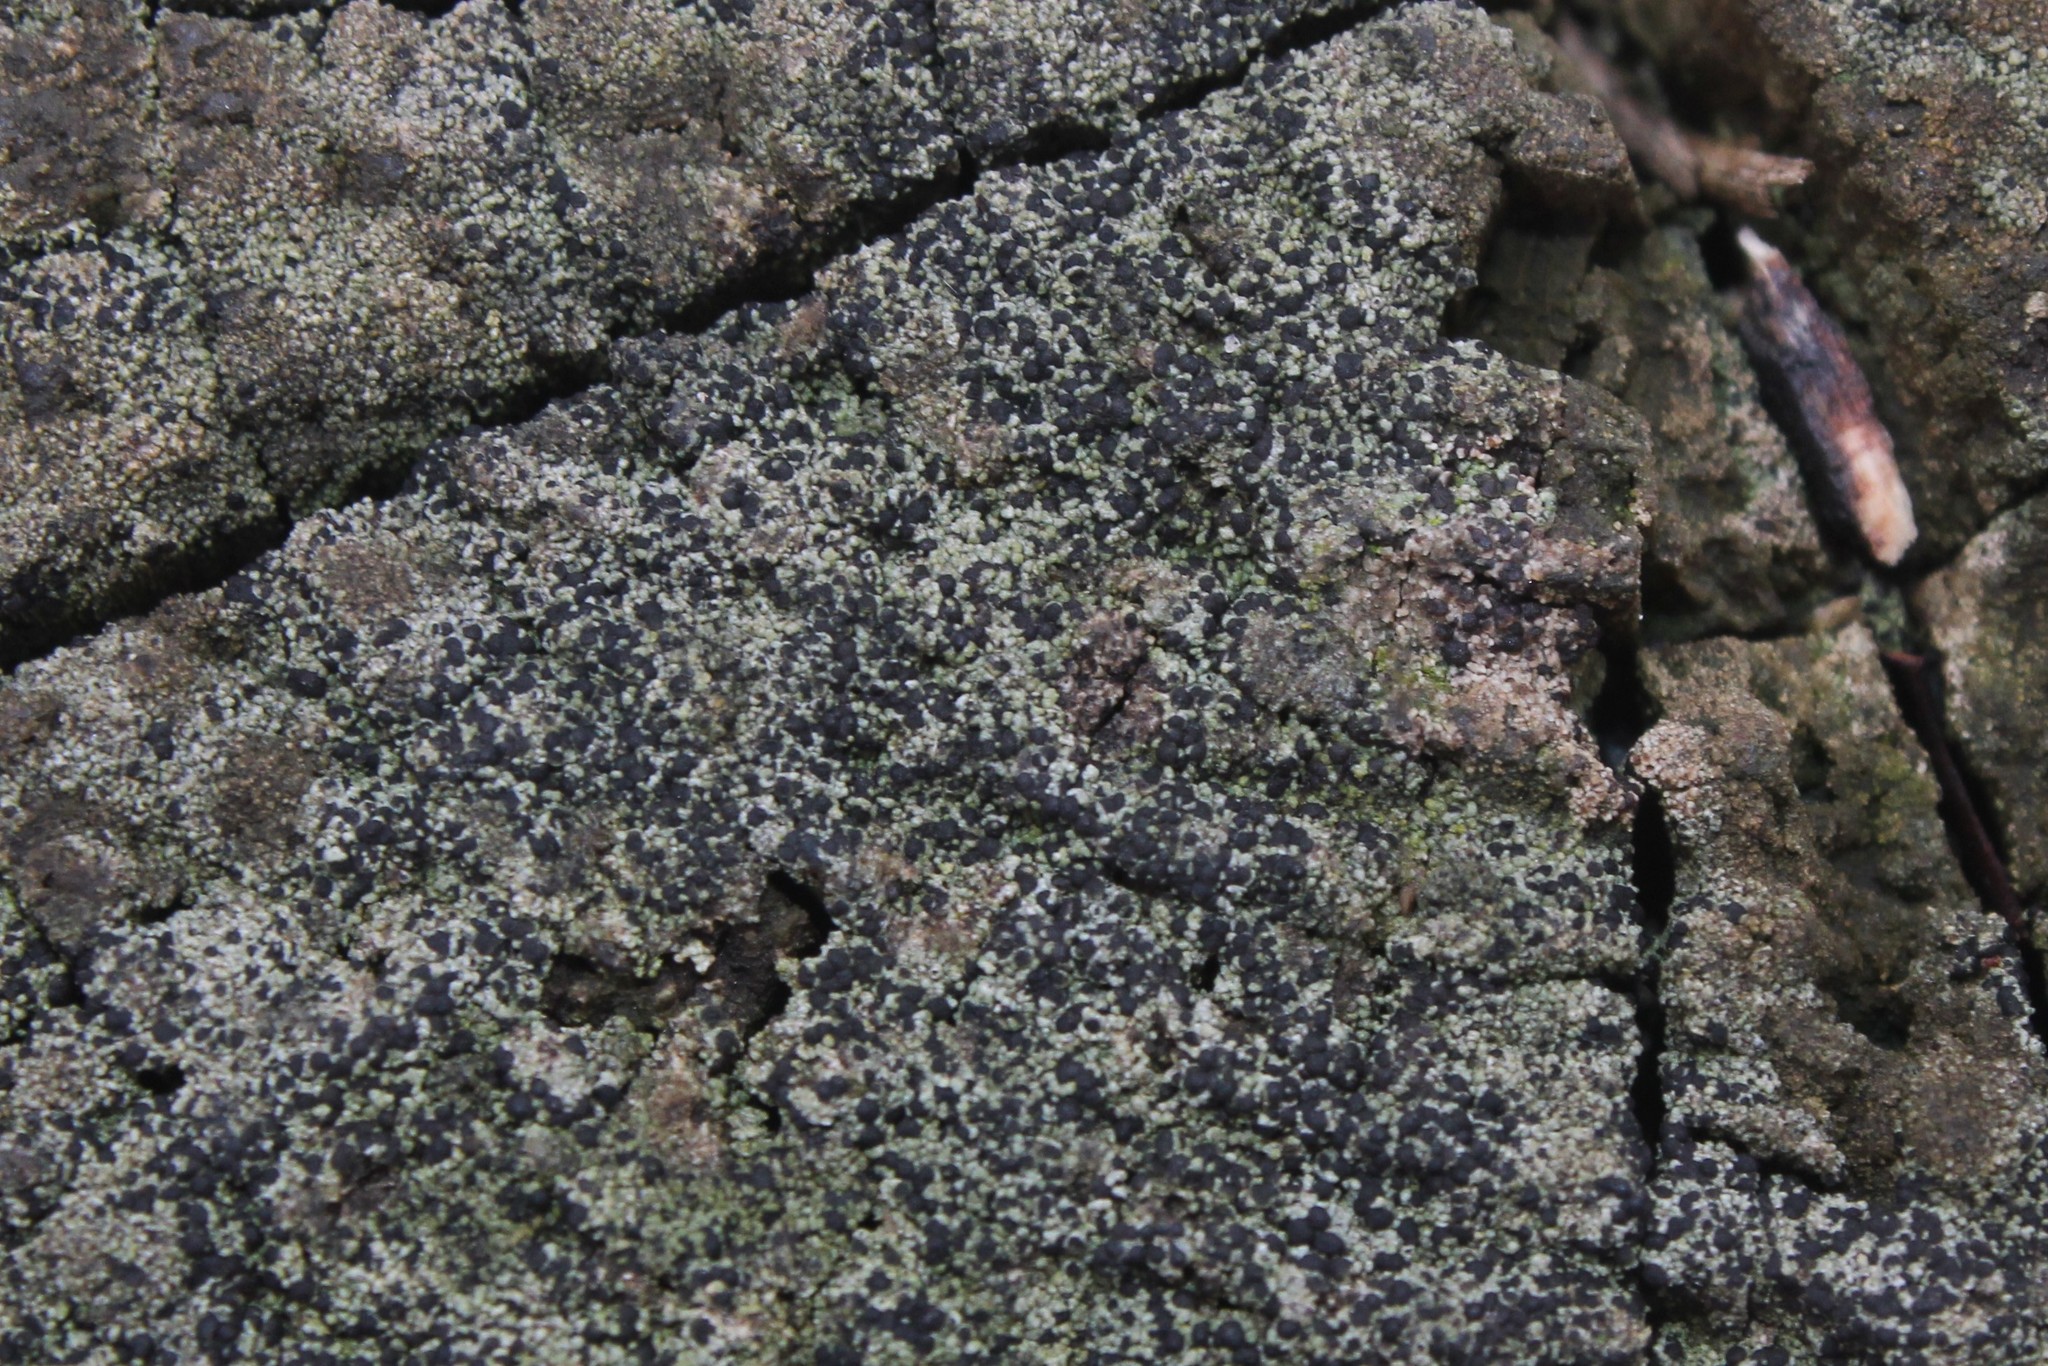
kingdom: Fungi
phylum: Ascomycota
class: Lecanoromycetes
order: Baeomycetales
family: Trapeliaceae
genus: Trapeliopsis
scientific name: Trapeliopsis flexuosa
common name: Board lichen
